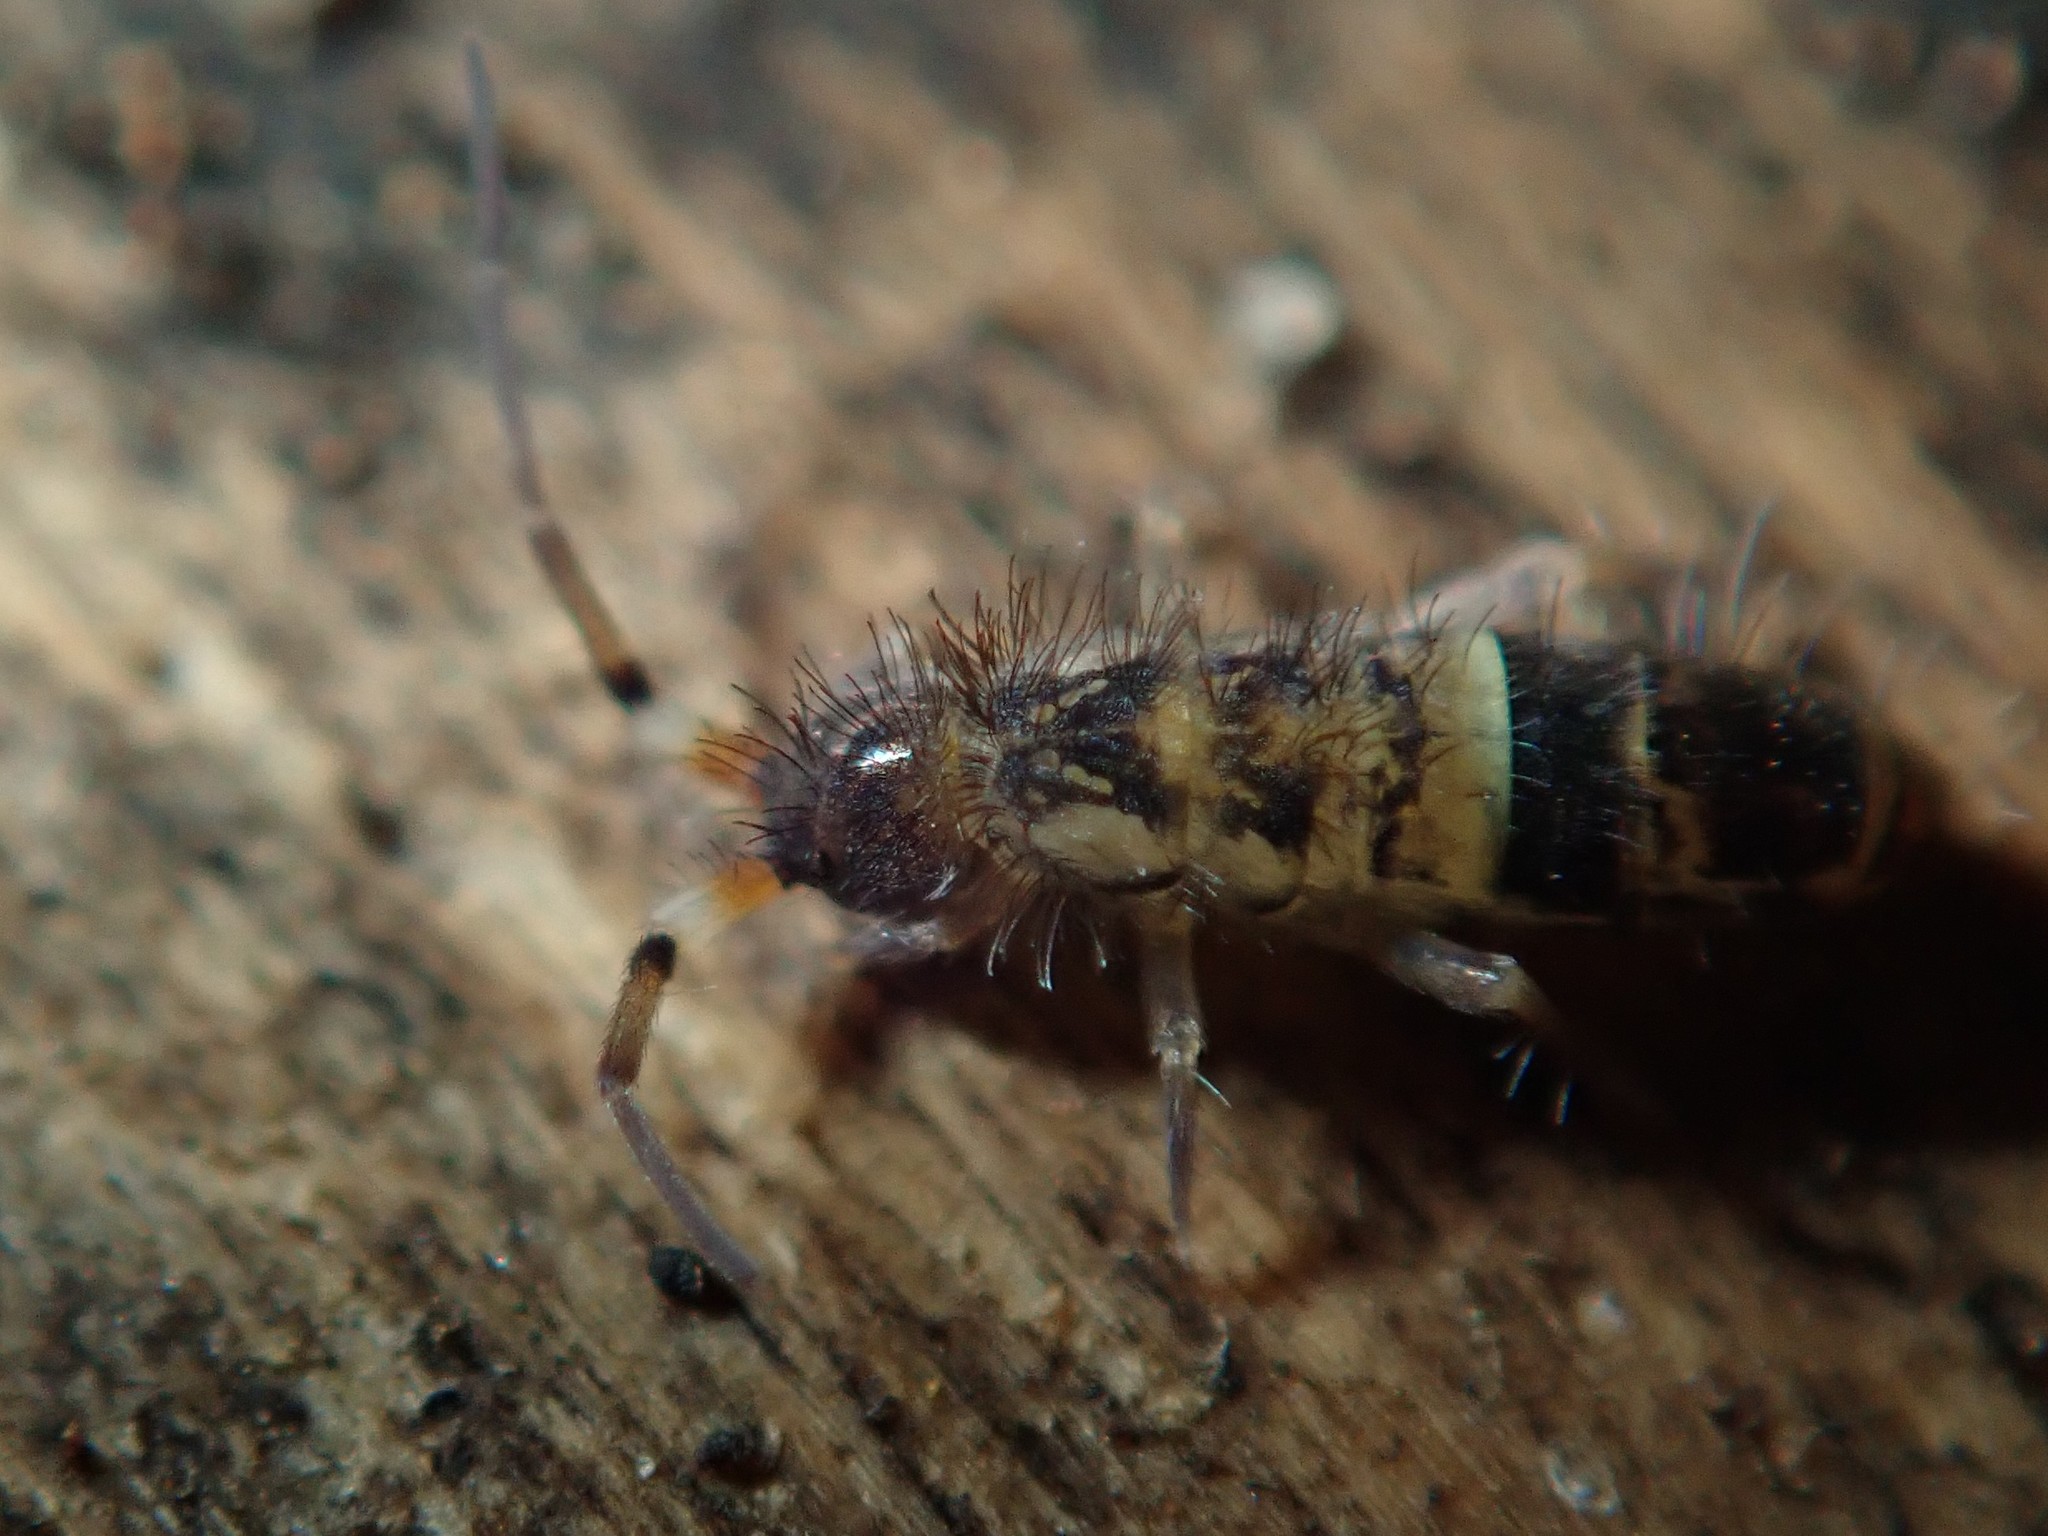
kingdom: Animalia
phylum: Arthropoda
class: Collembola
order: Entomobryomorpha
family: Orchesellidae
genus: Orchesella
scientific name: Orchesella cincta
